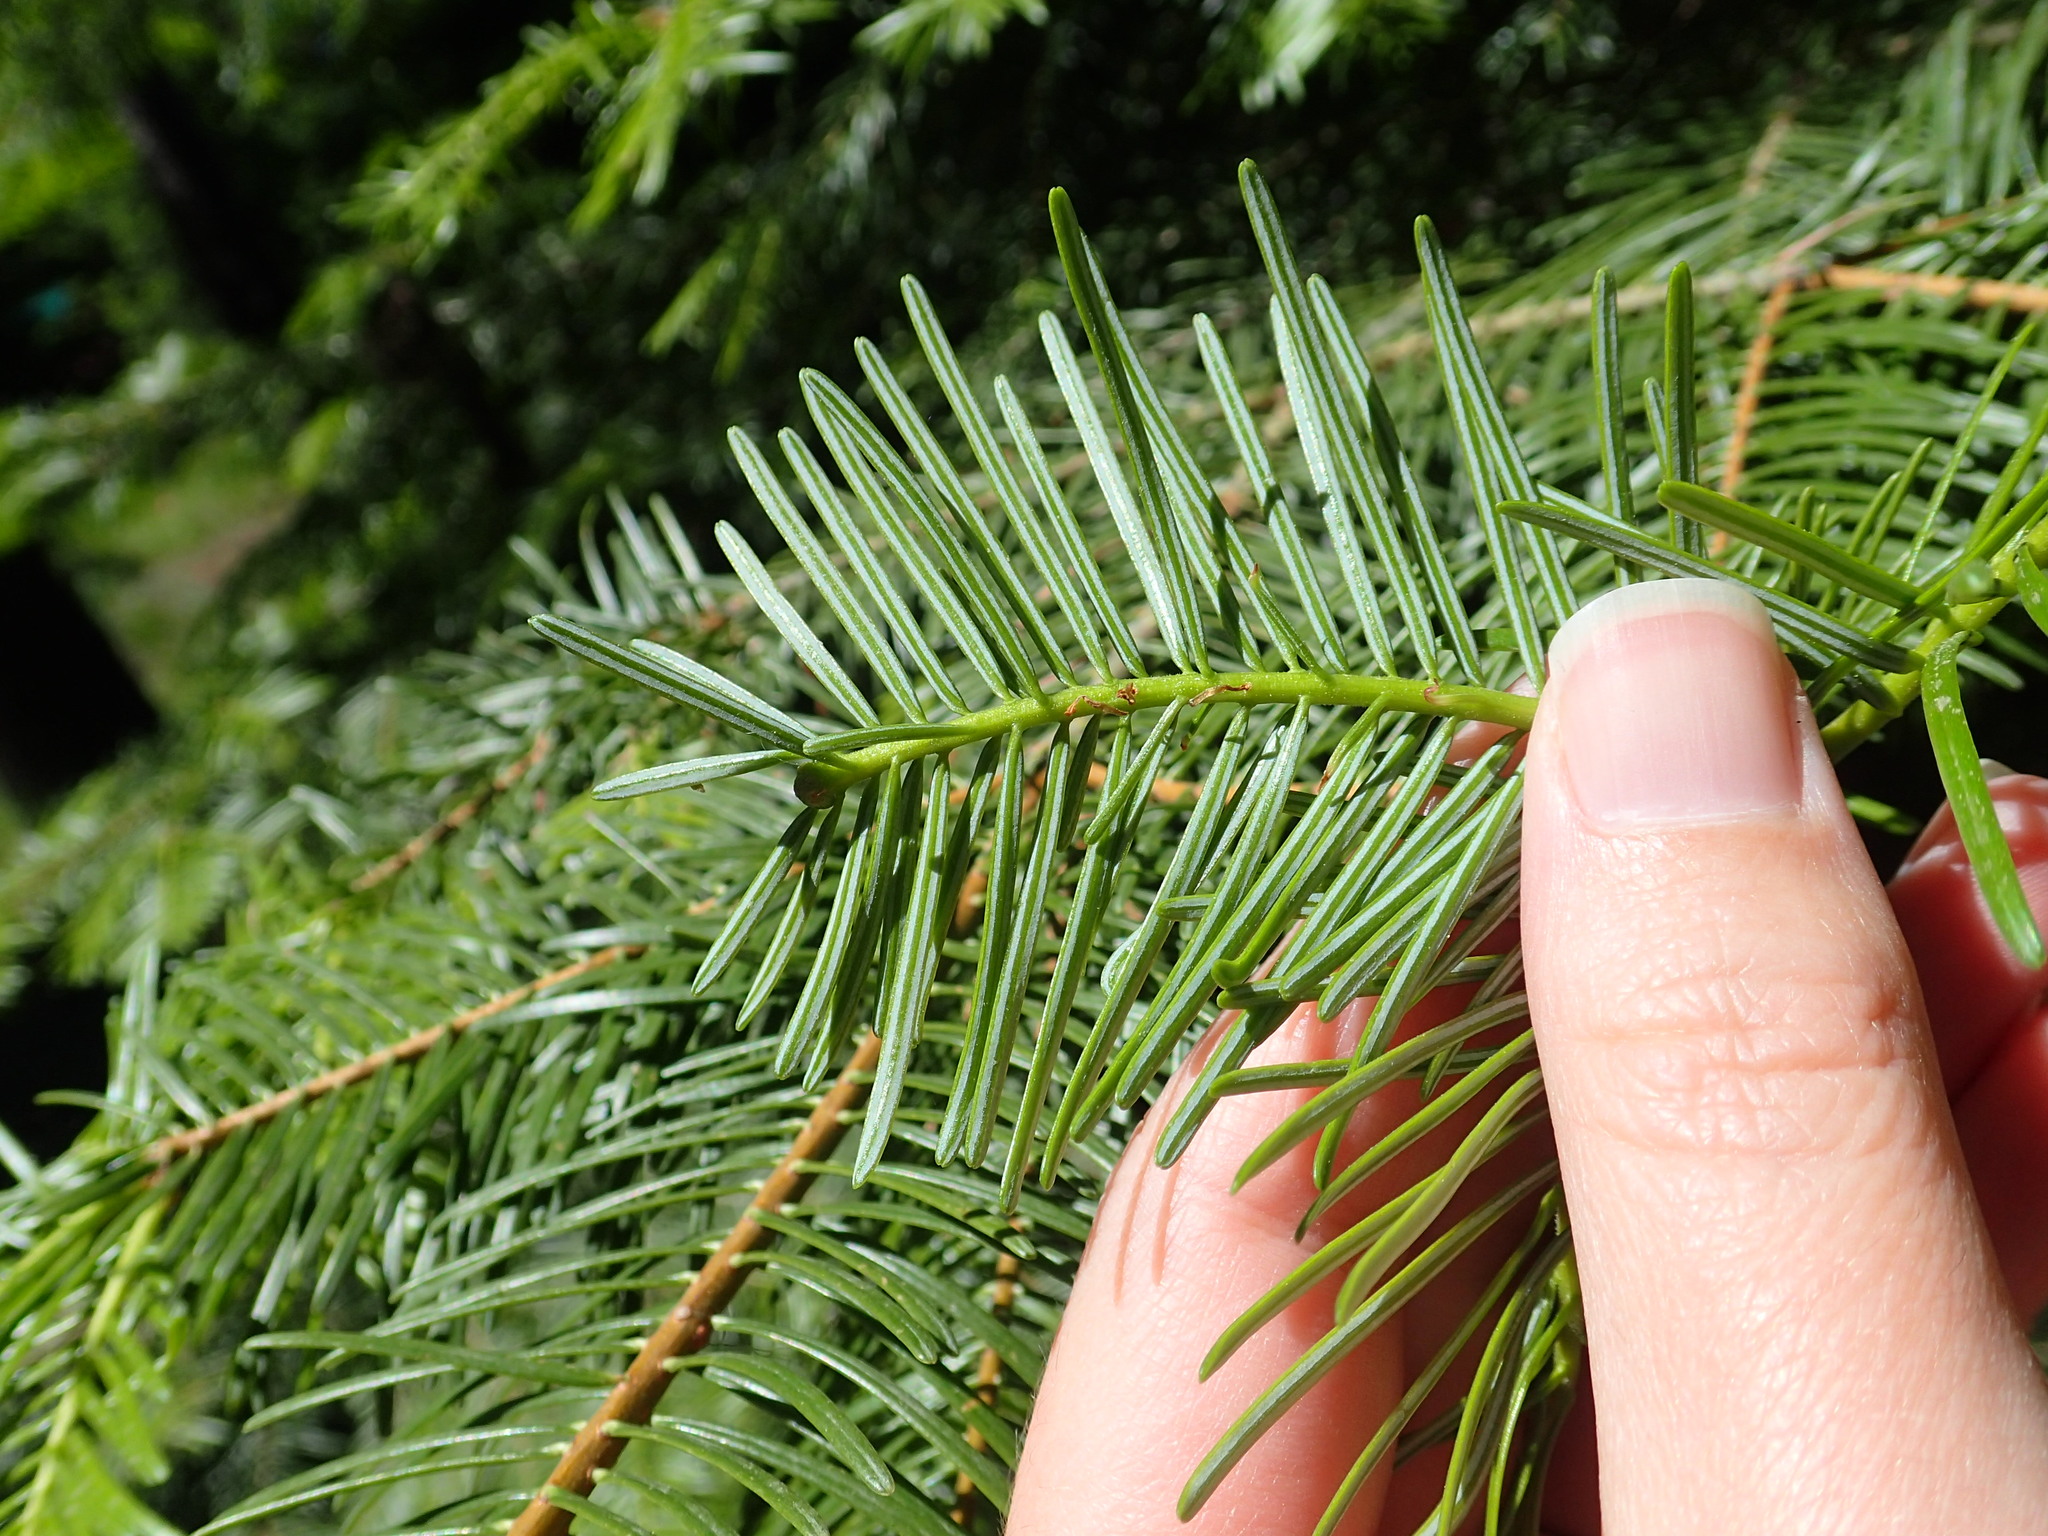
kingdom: Plantae
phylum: Tracheophyta
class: Pinopsida
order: Pinales
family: Pinaceae
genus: Abies
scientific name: Abies grandis
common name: Giant fir
